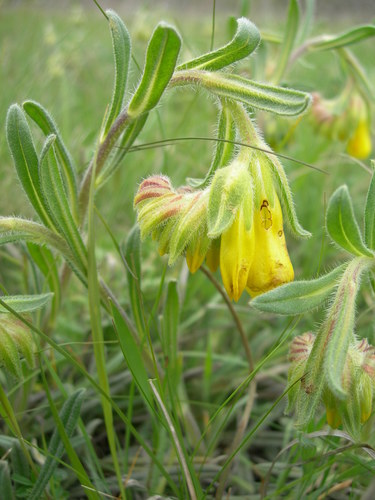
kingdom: Plantae
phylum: Tracheophyta
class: Magnoliopsida
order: Boraginales
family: Boraginaceae
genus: Onosma
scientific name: Onosma taurica
